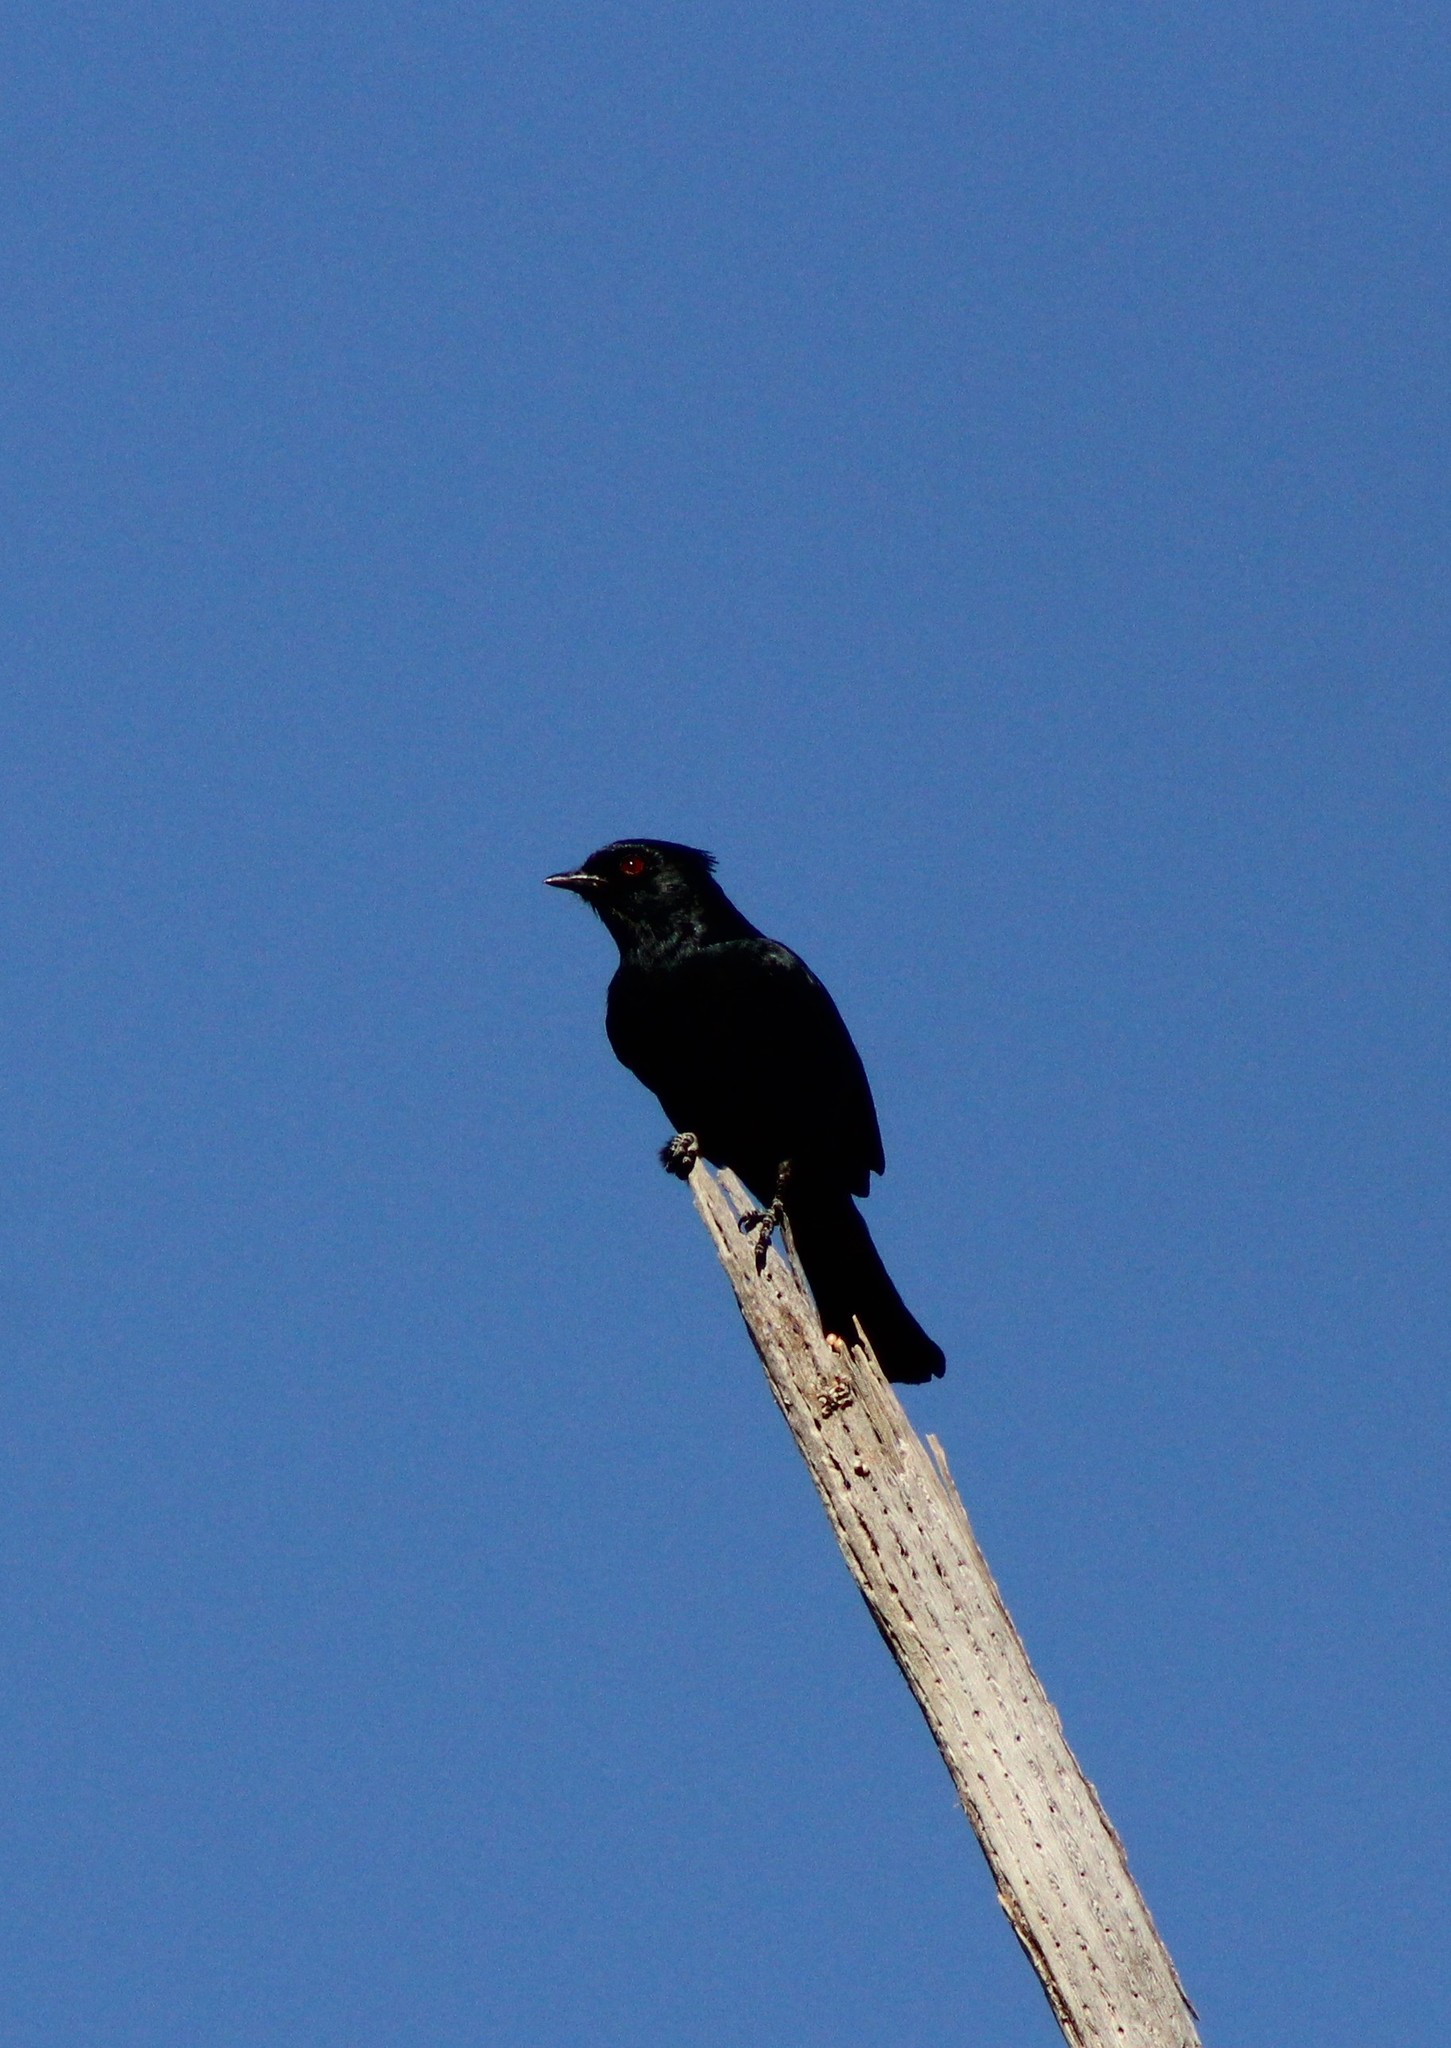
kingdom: Animalia
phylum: Chordata
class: Aves
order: Passeriformes
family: Ptilogonatidae
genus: Phainopepla
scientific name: Phainopepla nitens
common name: Phainopepla
